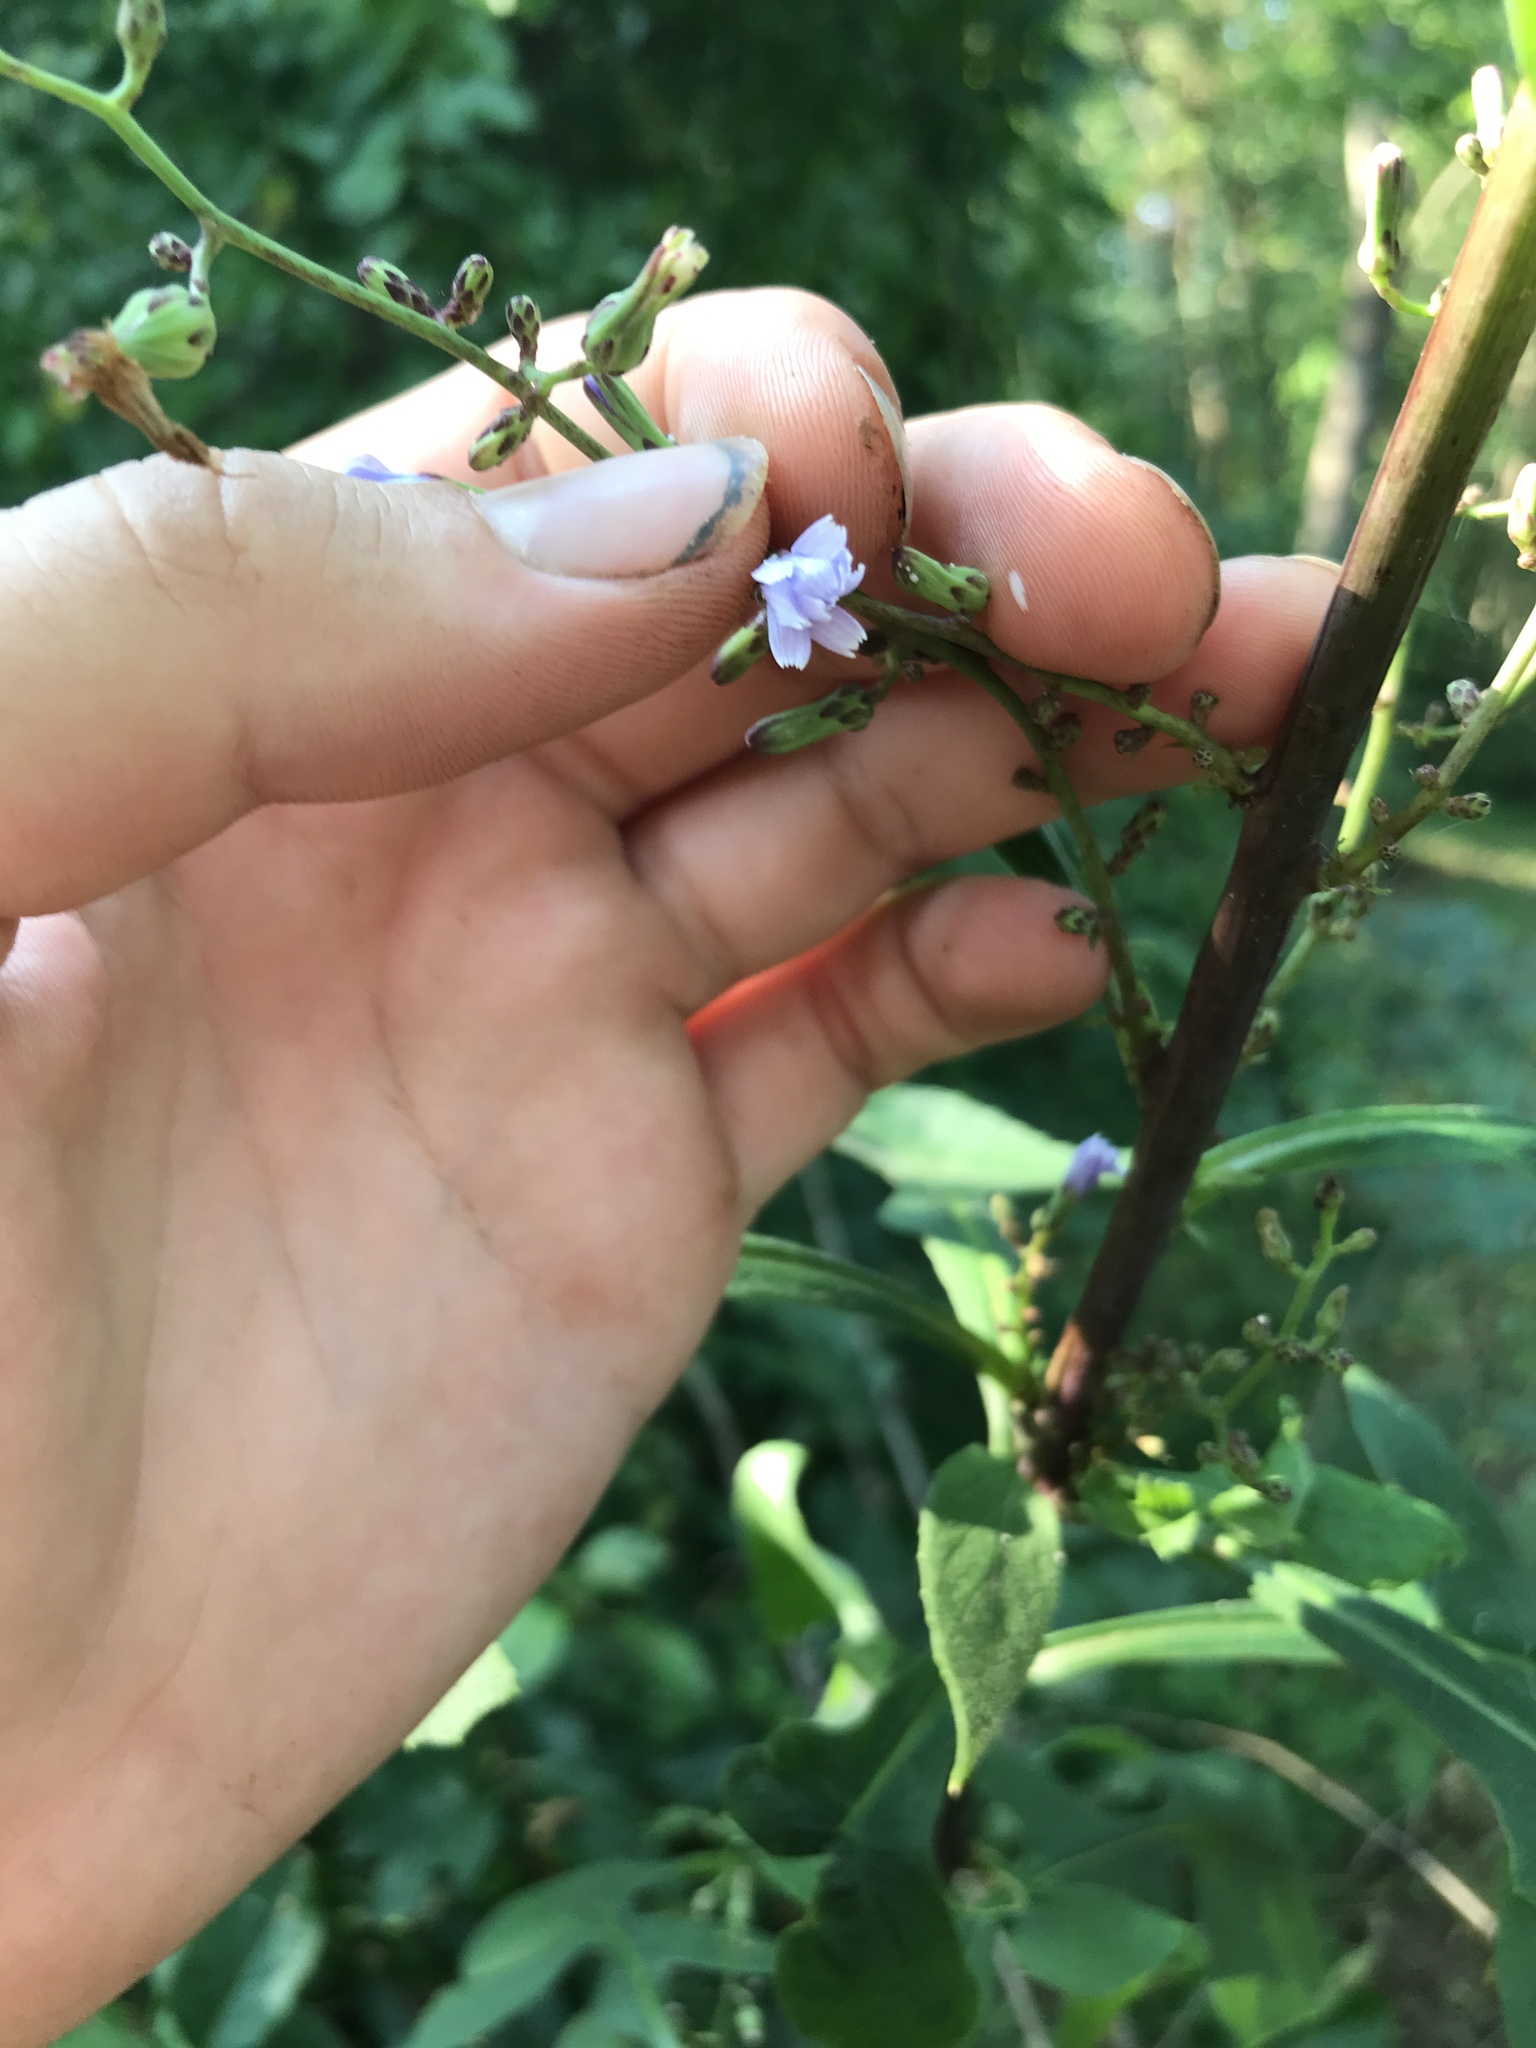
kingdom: Plantae
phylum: Tracheophyta
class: Magnoliopsida
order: Asterales
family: Asteraceae
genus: Lactuca
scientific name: Lactuca floridana
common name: Woodland lettuce
